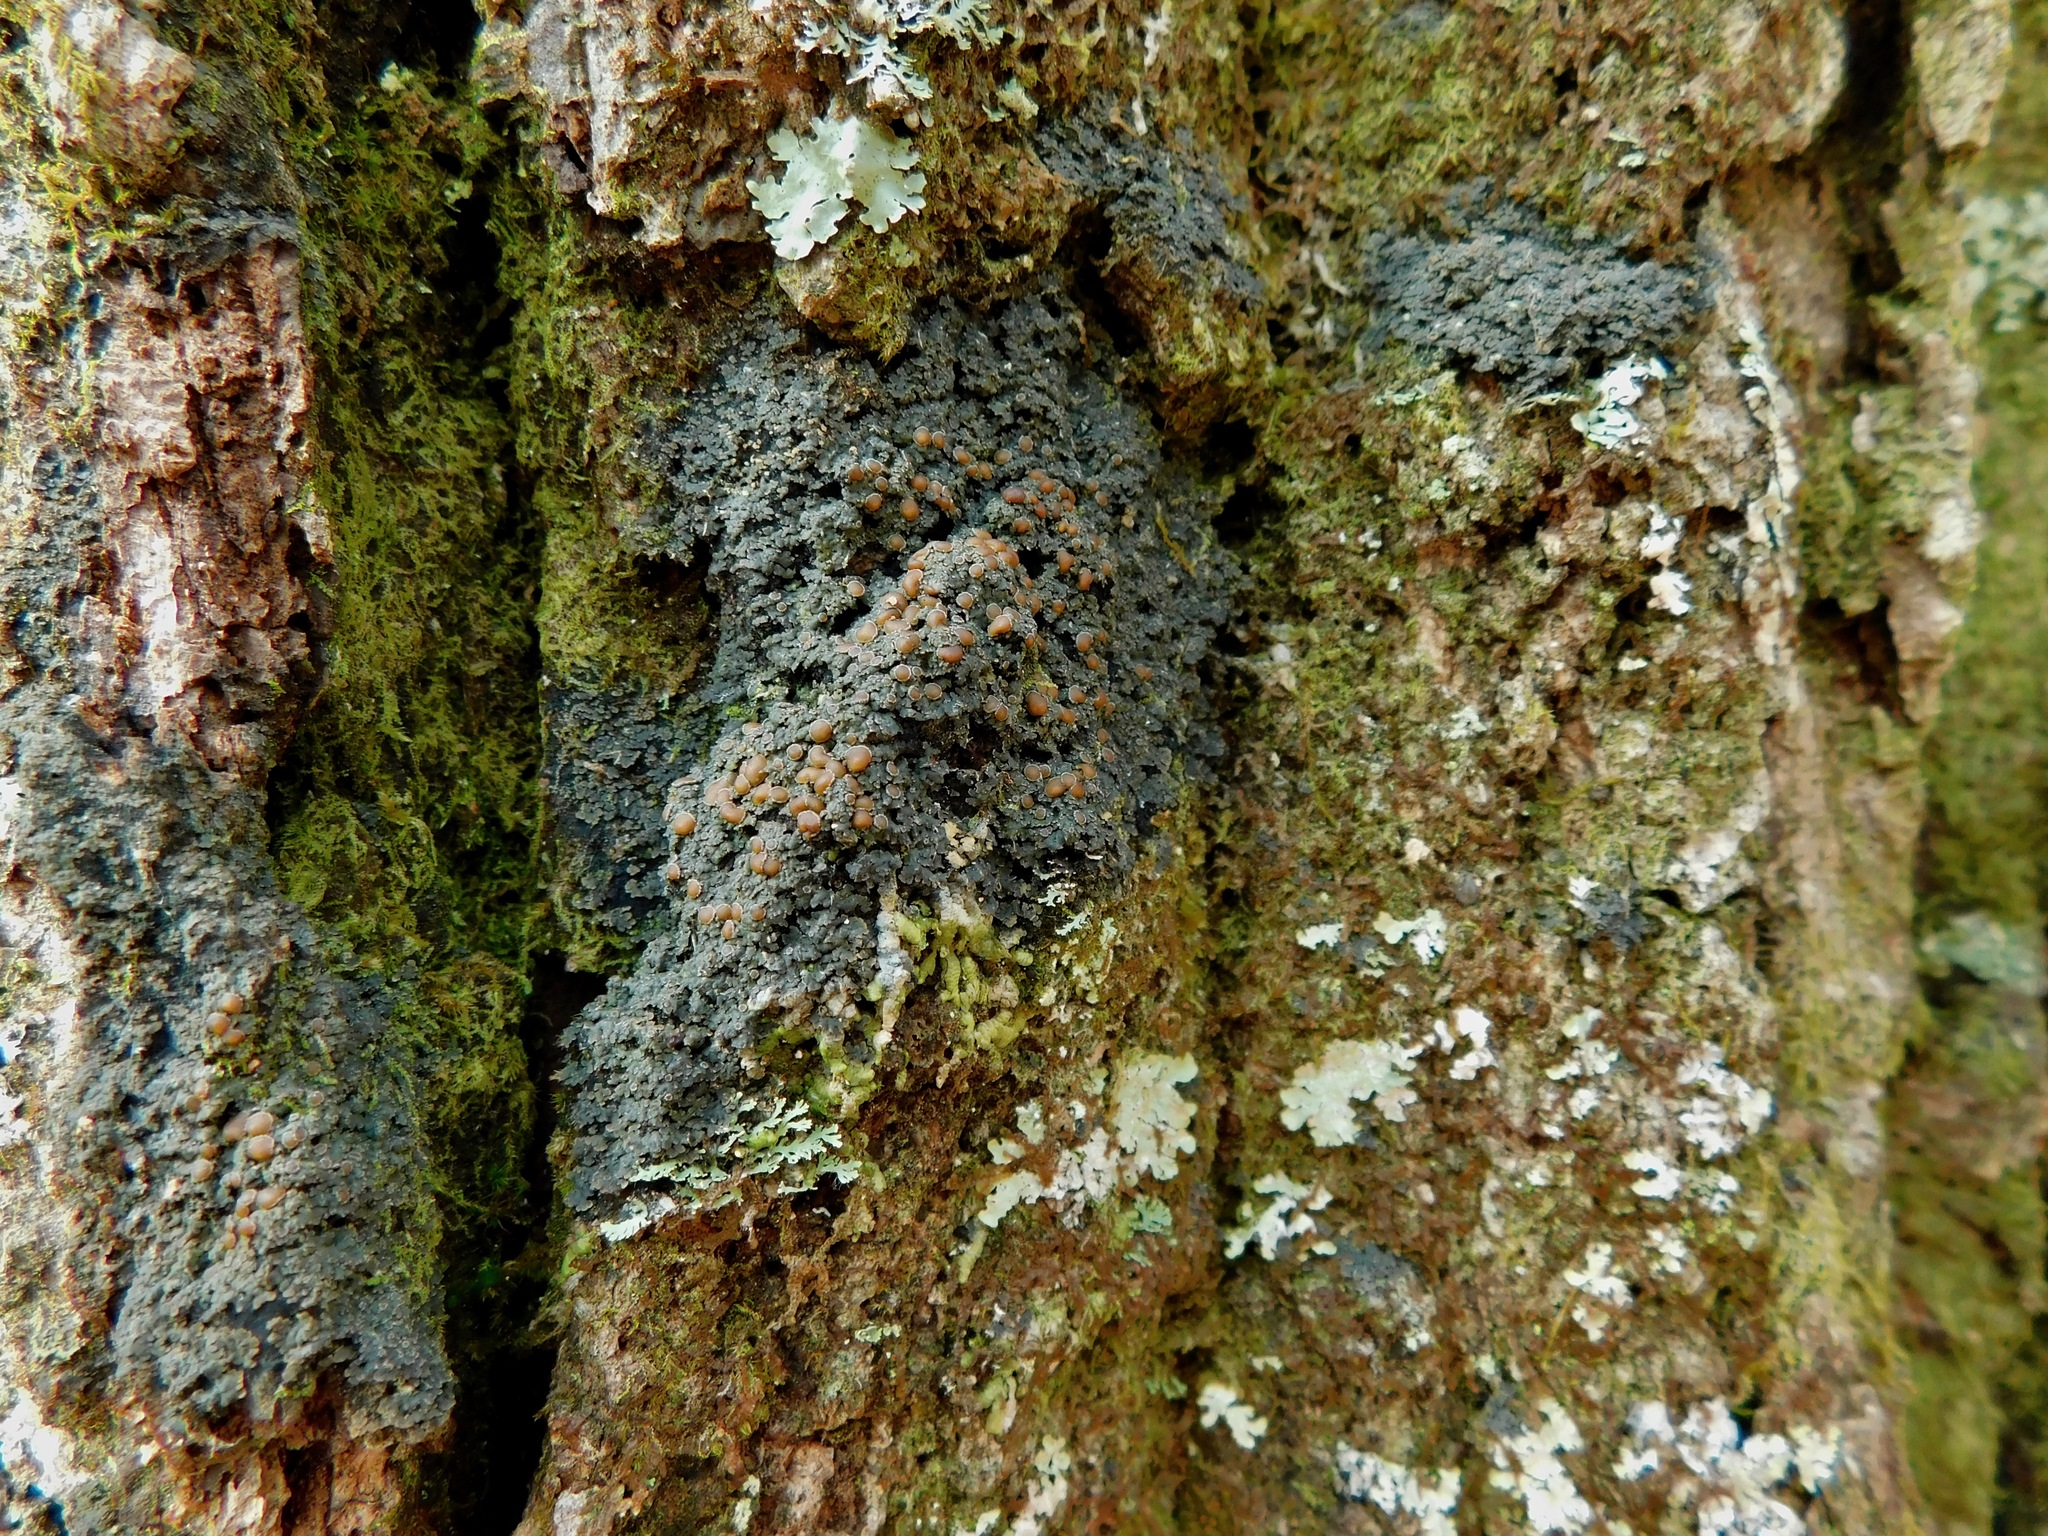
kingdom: Fungi
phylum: Ascomycota
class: Lecanoromycetes
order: Peltigerales
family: Pannariaceae
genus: Fuscopannaria
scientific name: Fuscopannaria leucosticta
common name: Rimmed shingle lichen
